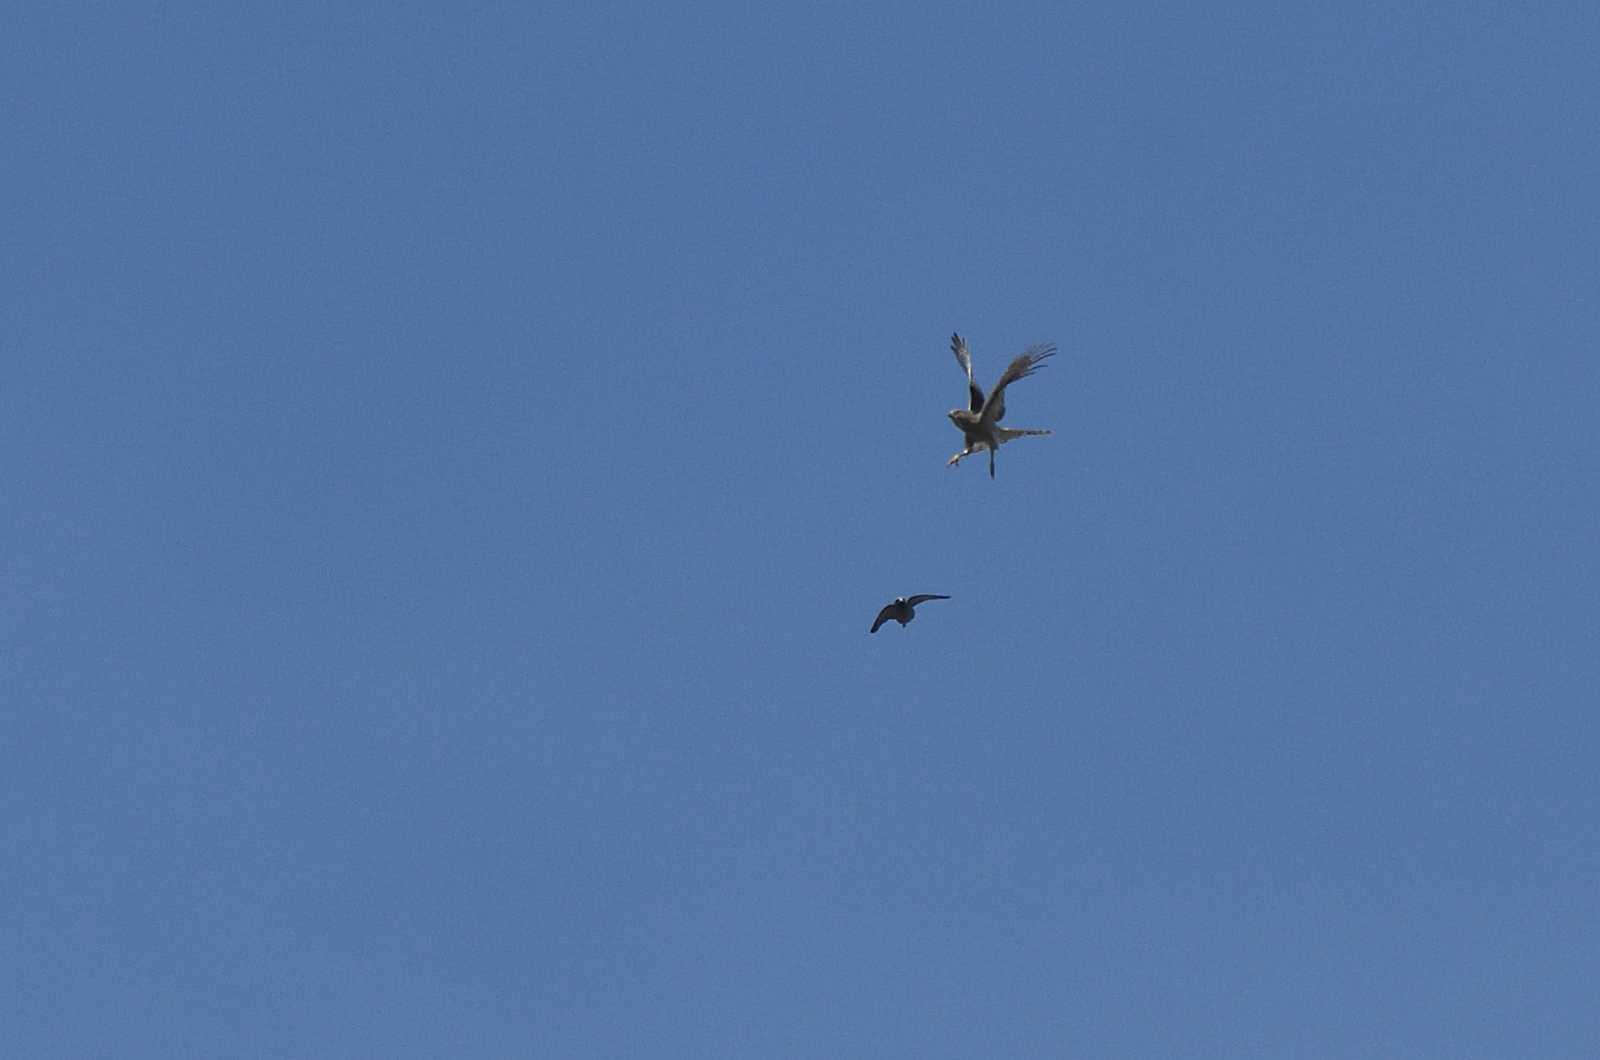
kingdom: Animalia
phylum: Chordata
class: Aves
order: Accipitriformes
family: Accipitridae
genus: Accipiter
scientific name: Accipiter badius
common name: Shikra
